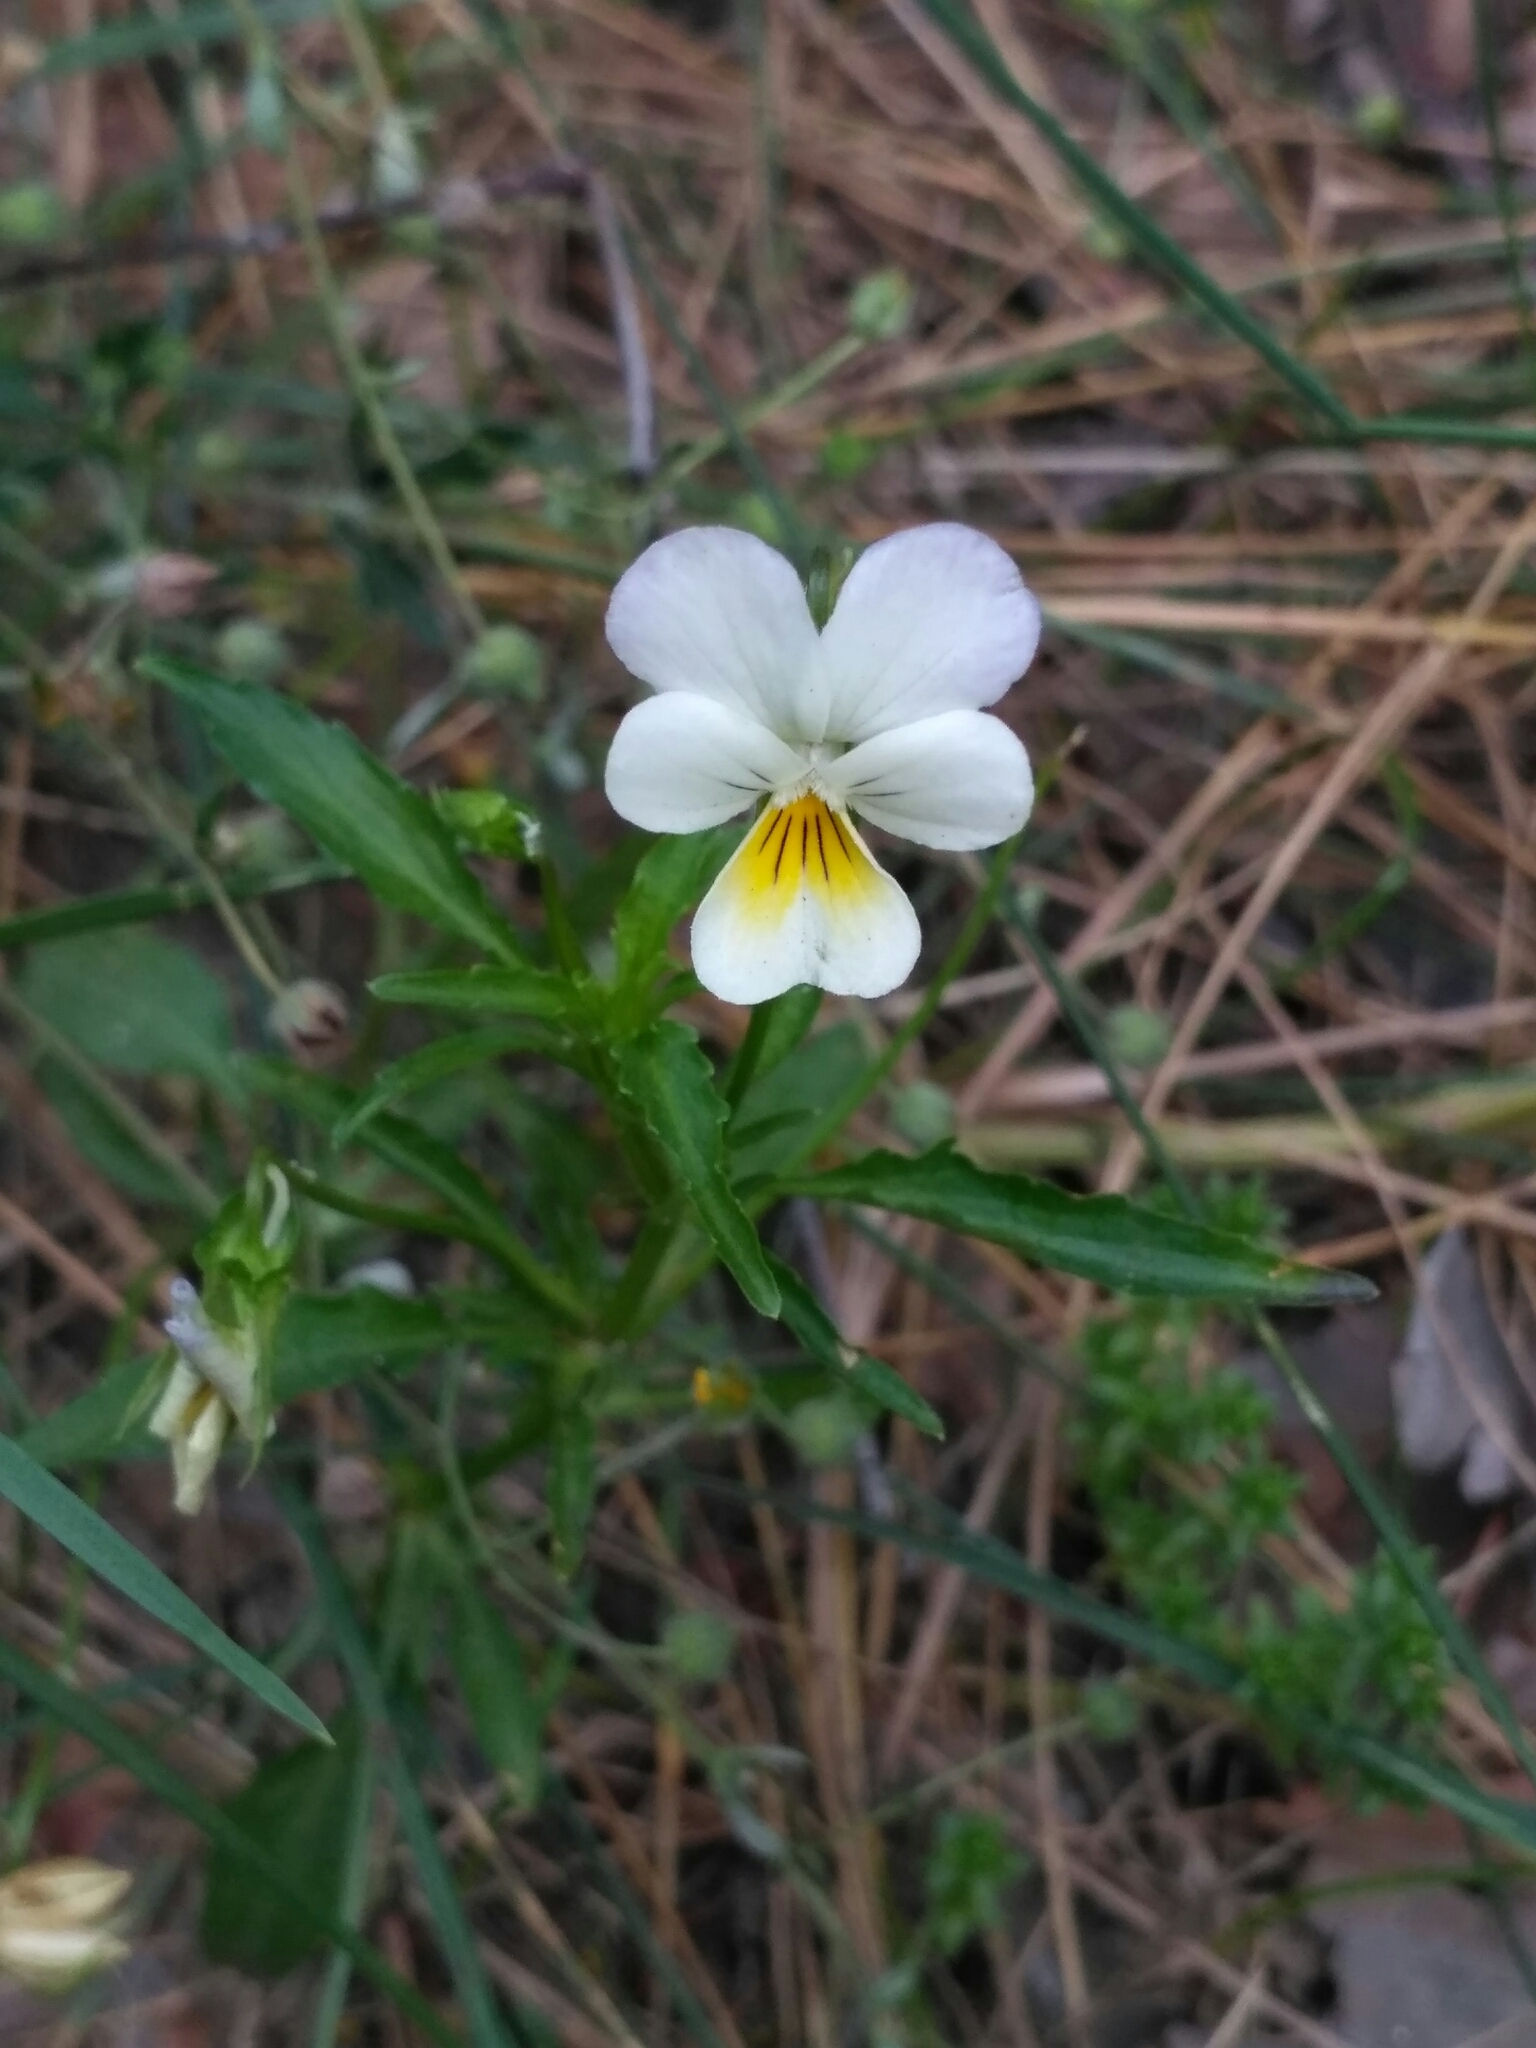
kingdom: Plantae
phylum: Tracheophyta
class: Magnoliopsida
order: Malpighiales
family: Violaceae
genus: Viola
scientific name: Viola arvensis
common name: Field pansy
